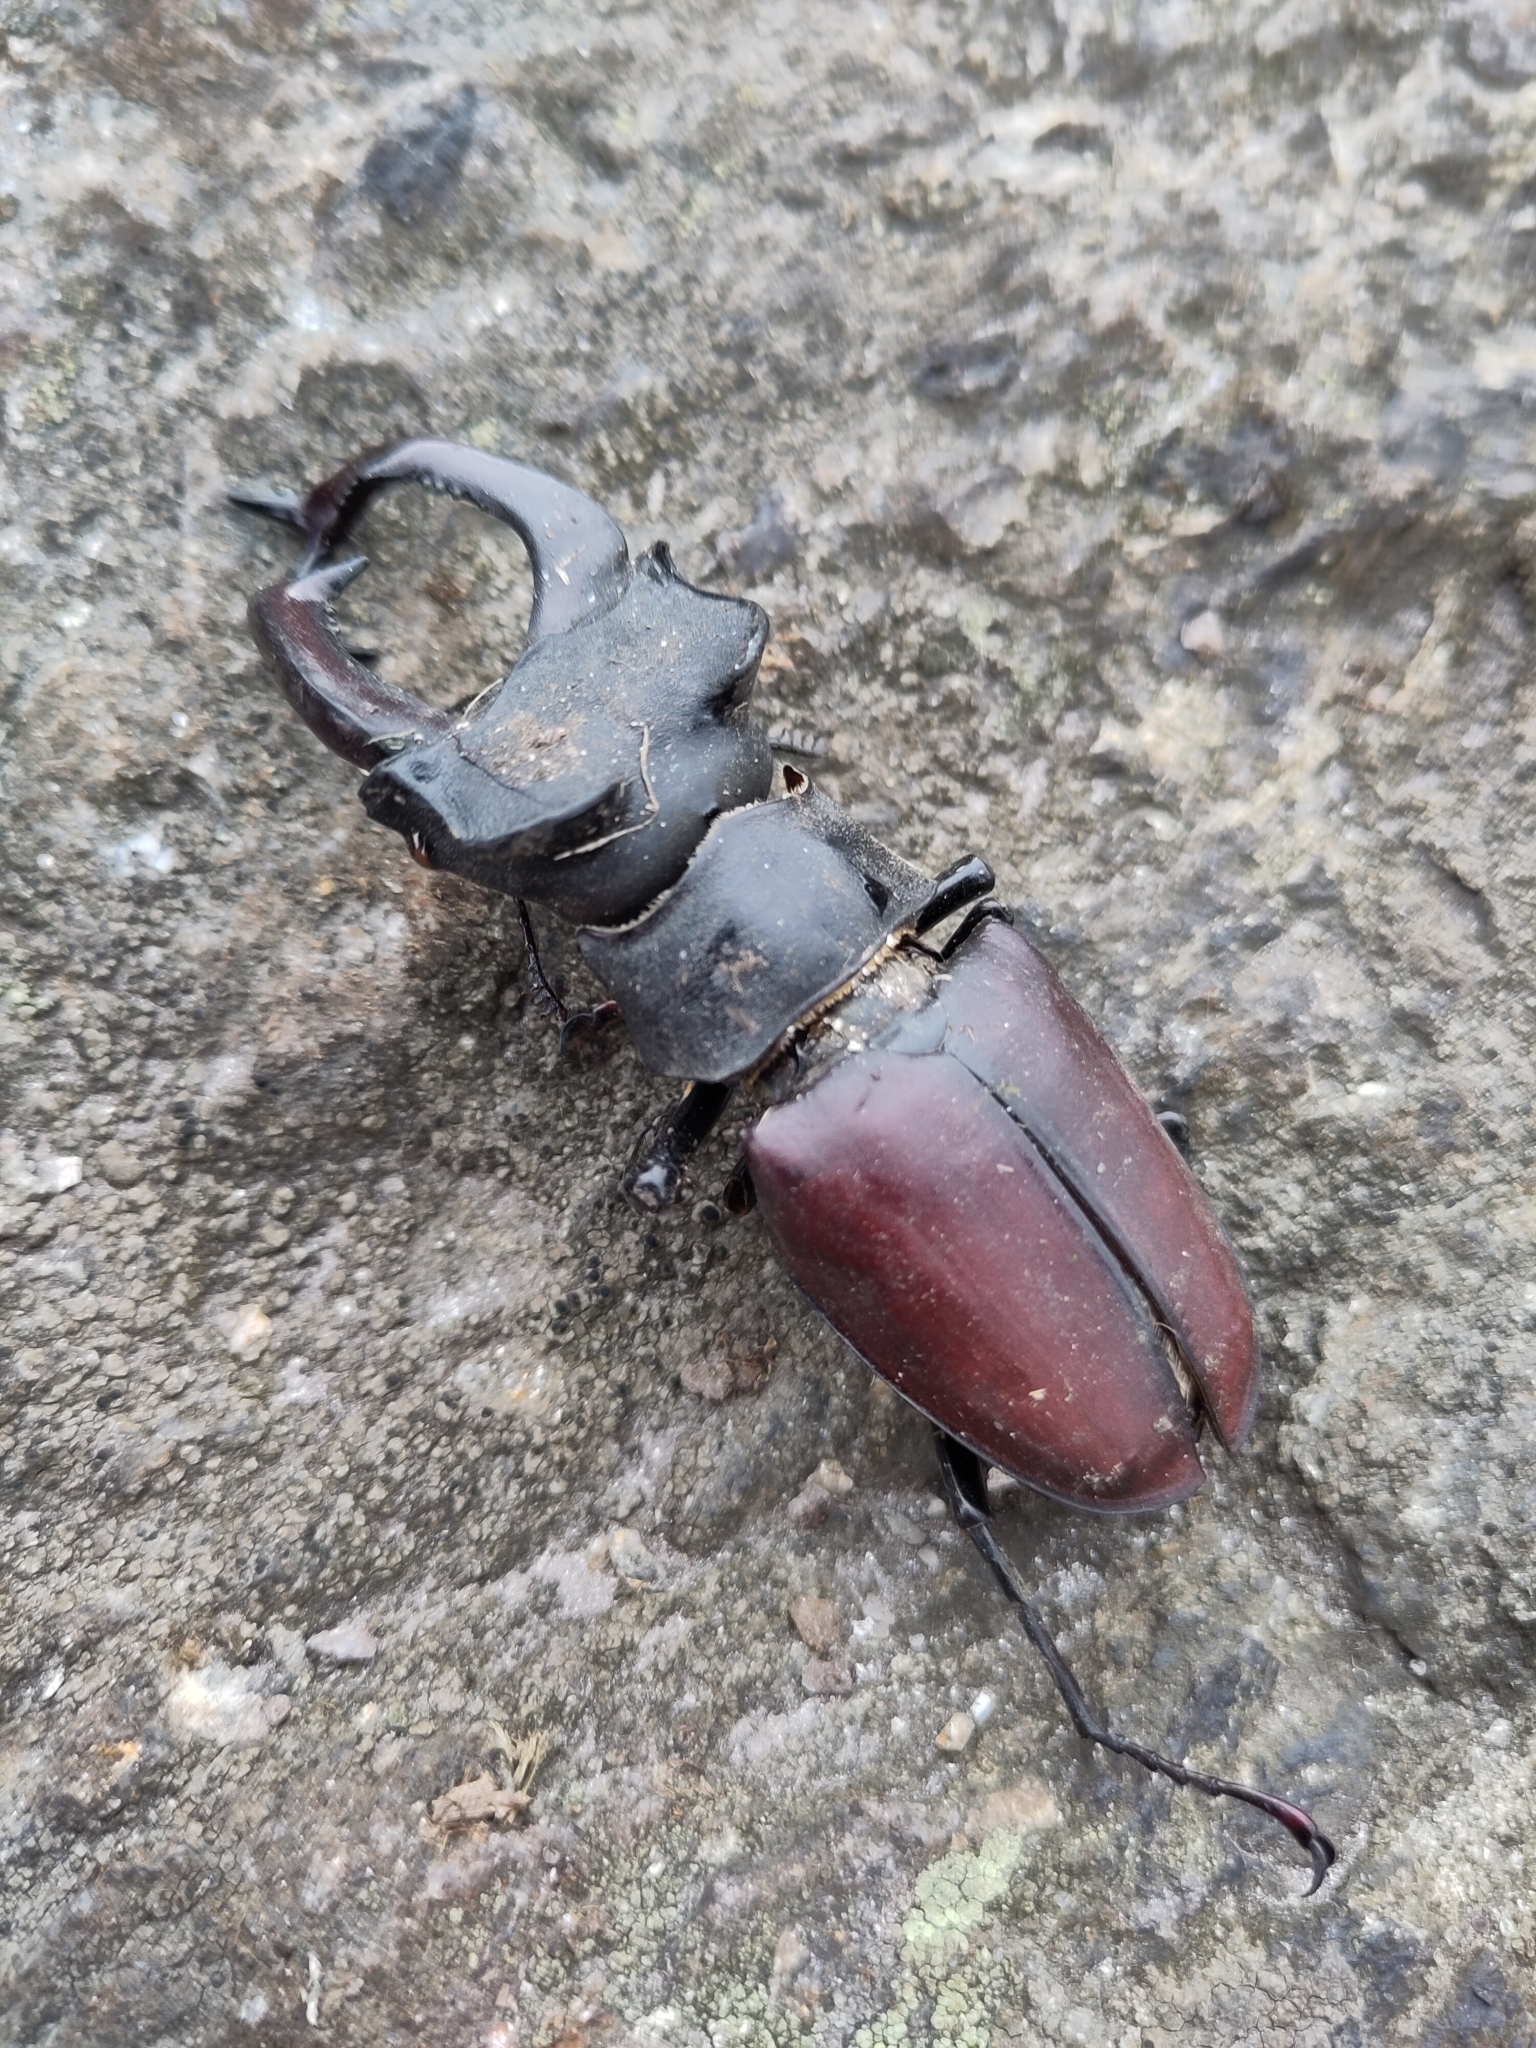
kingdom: Animalia
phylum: Arthropoda
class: Insecta
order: Coleoptera
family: Lucanidae
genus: Lucanus
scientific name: Lucanus cervus
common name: Stag beetle
